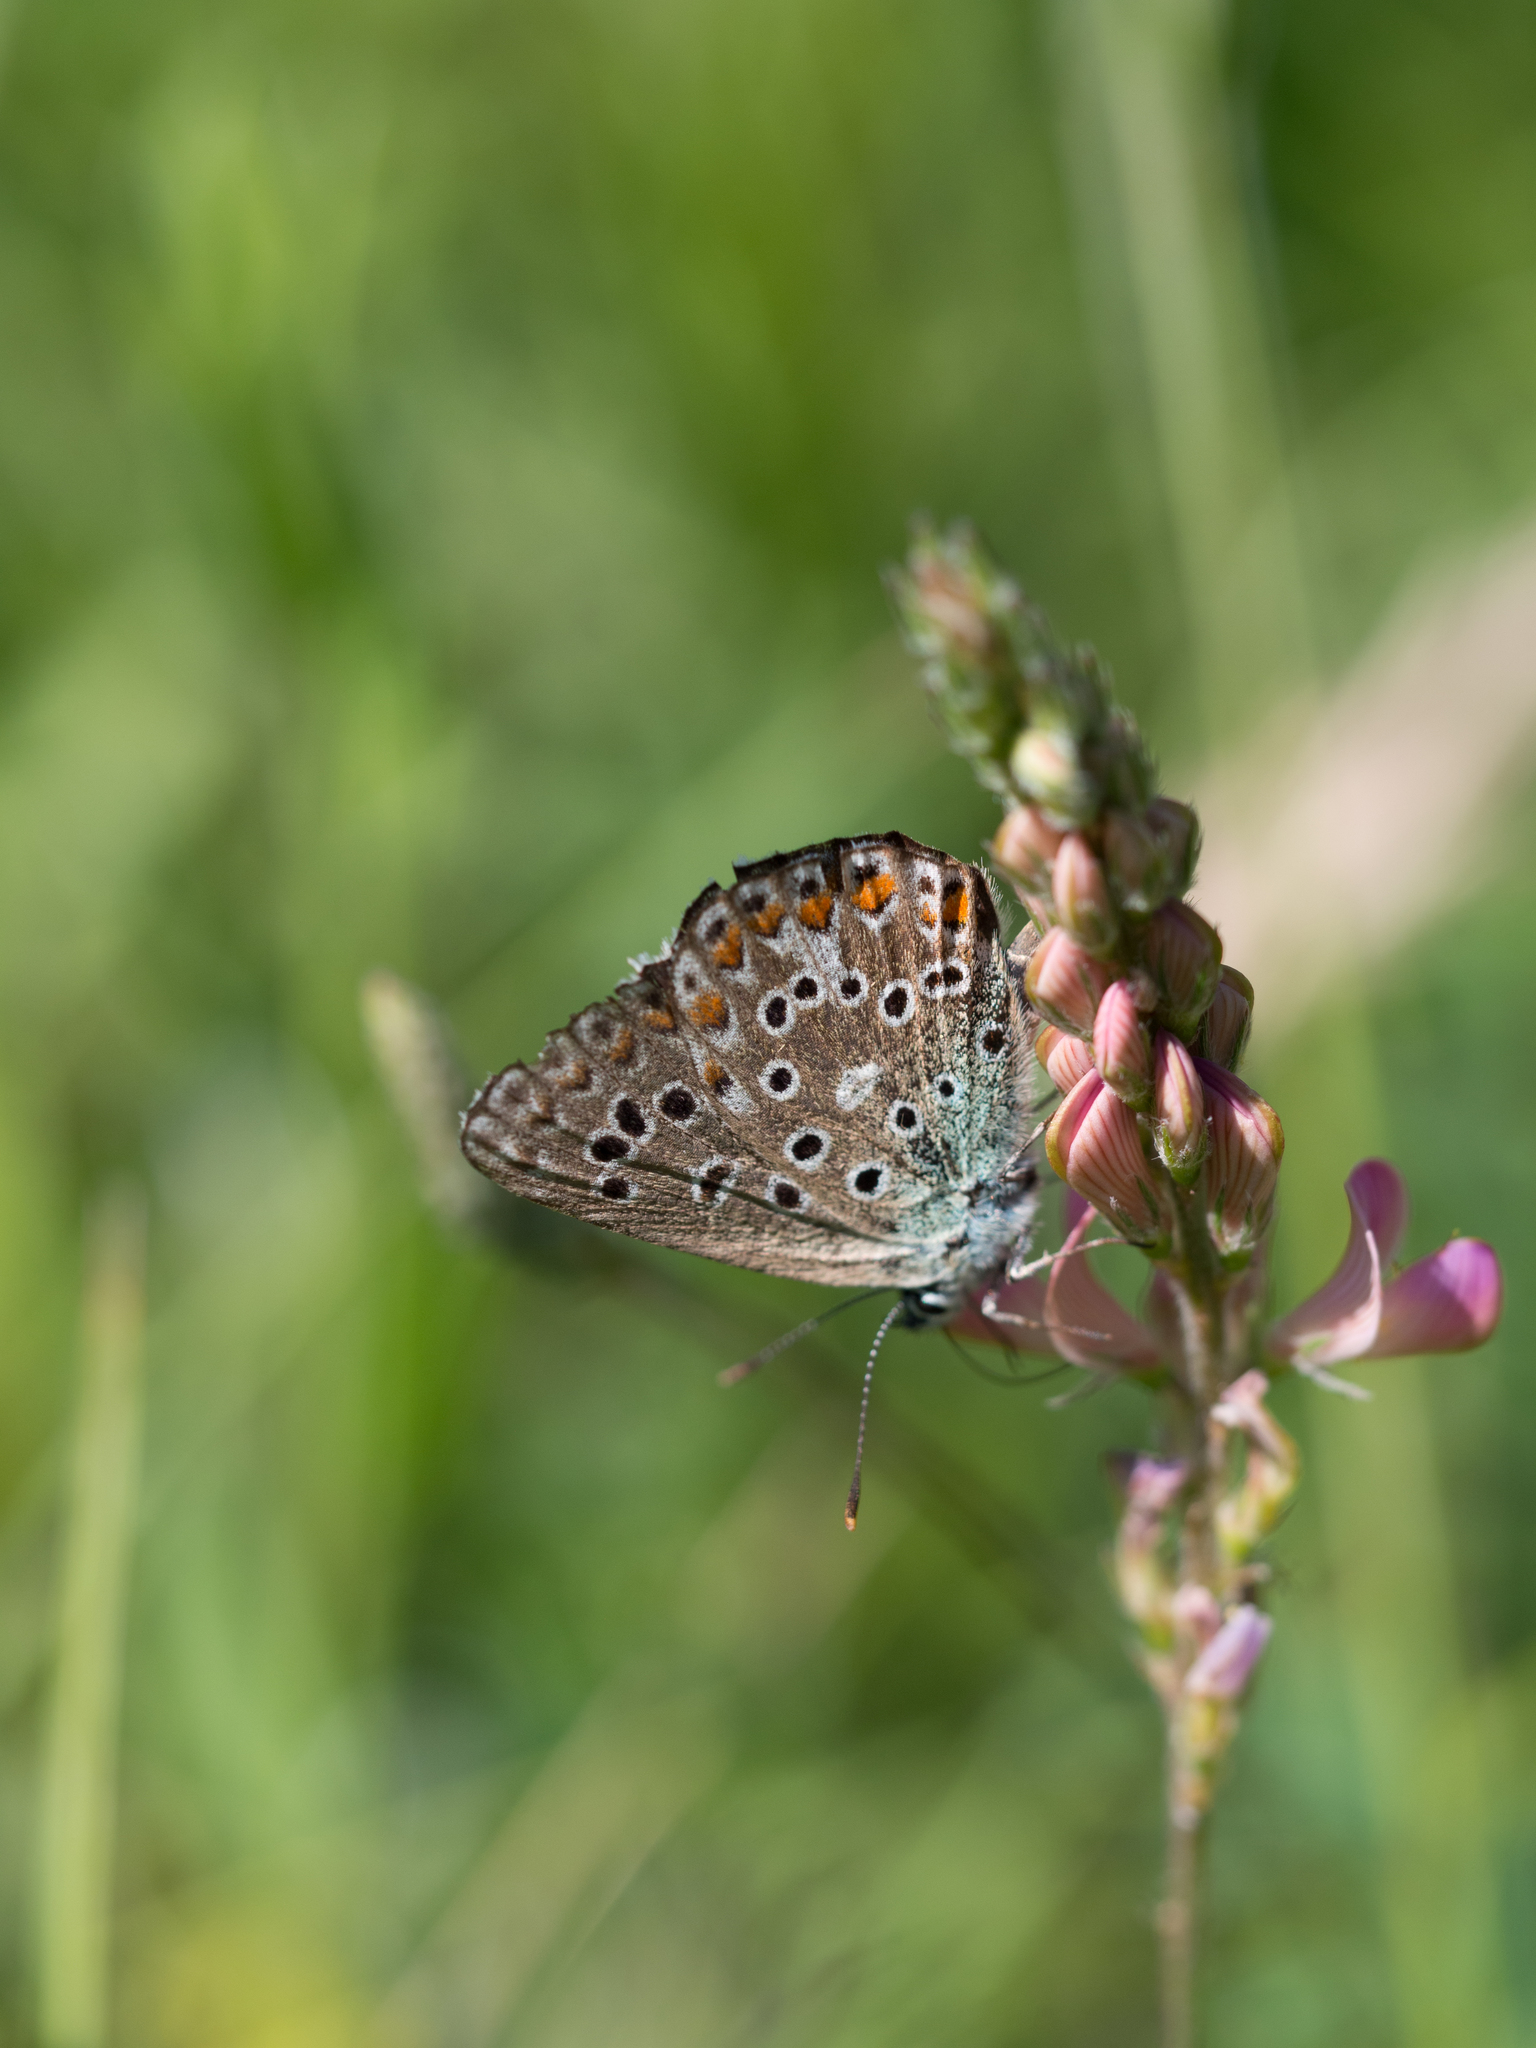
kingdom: Animalia
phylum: Arthropoda
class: Insecta
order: Lepidoptera
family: Lycaenidae
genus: Polyommatus
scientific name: Polyommatus icarus
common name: Common blue
